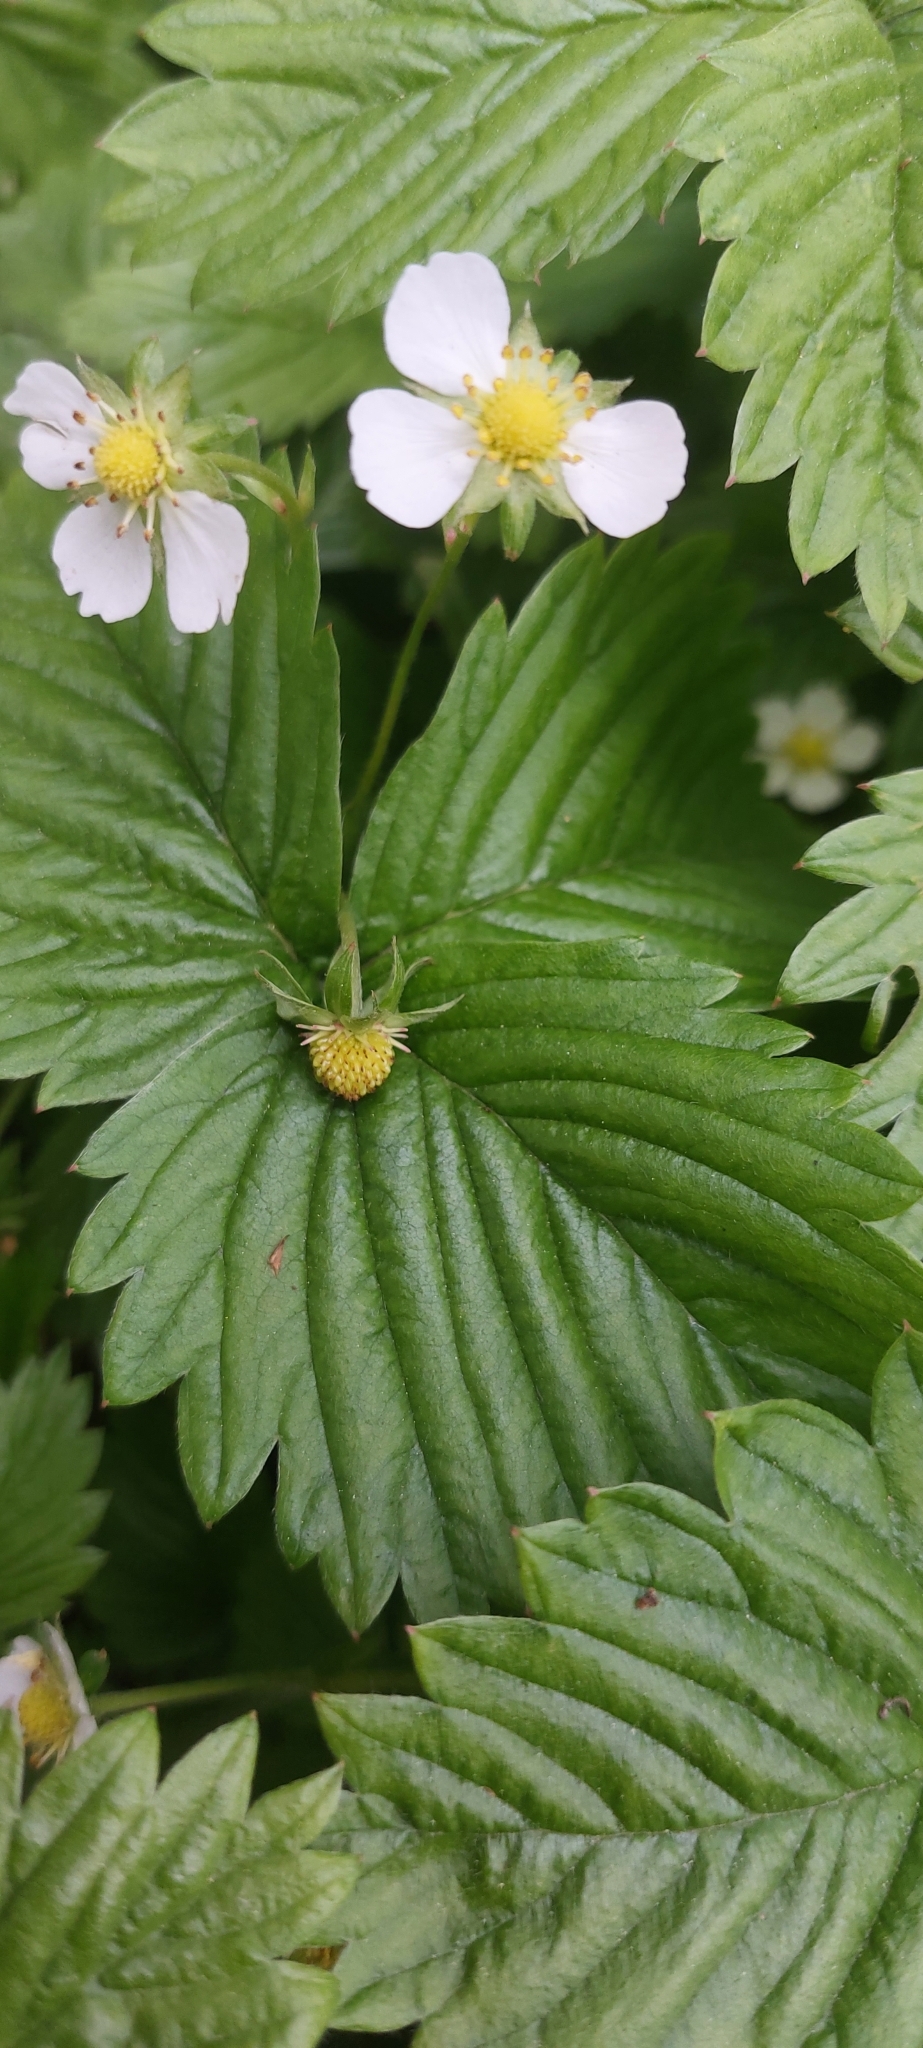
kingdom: Plantae
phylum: Tracheophyta
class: Magnoliopsida
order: Rosales
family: Rosaceae
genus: Fragaria
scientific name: Fragaria vesca
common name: Wild strawberry
